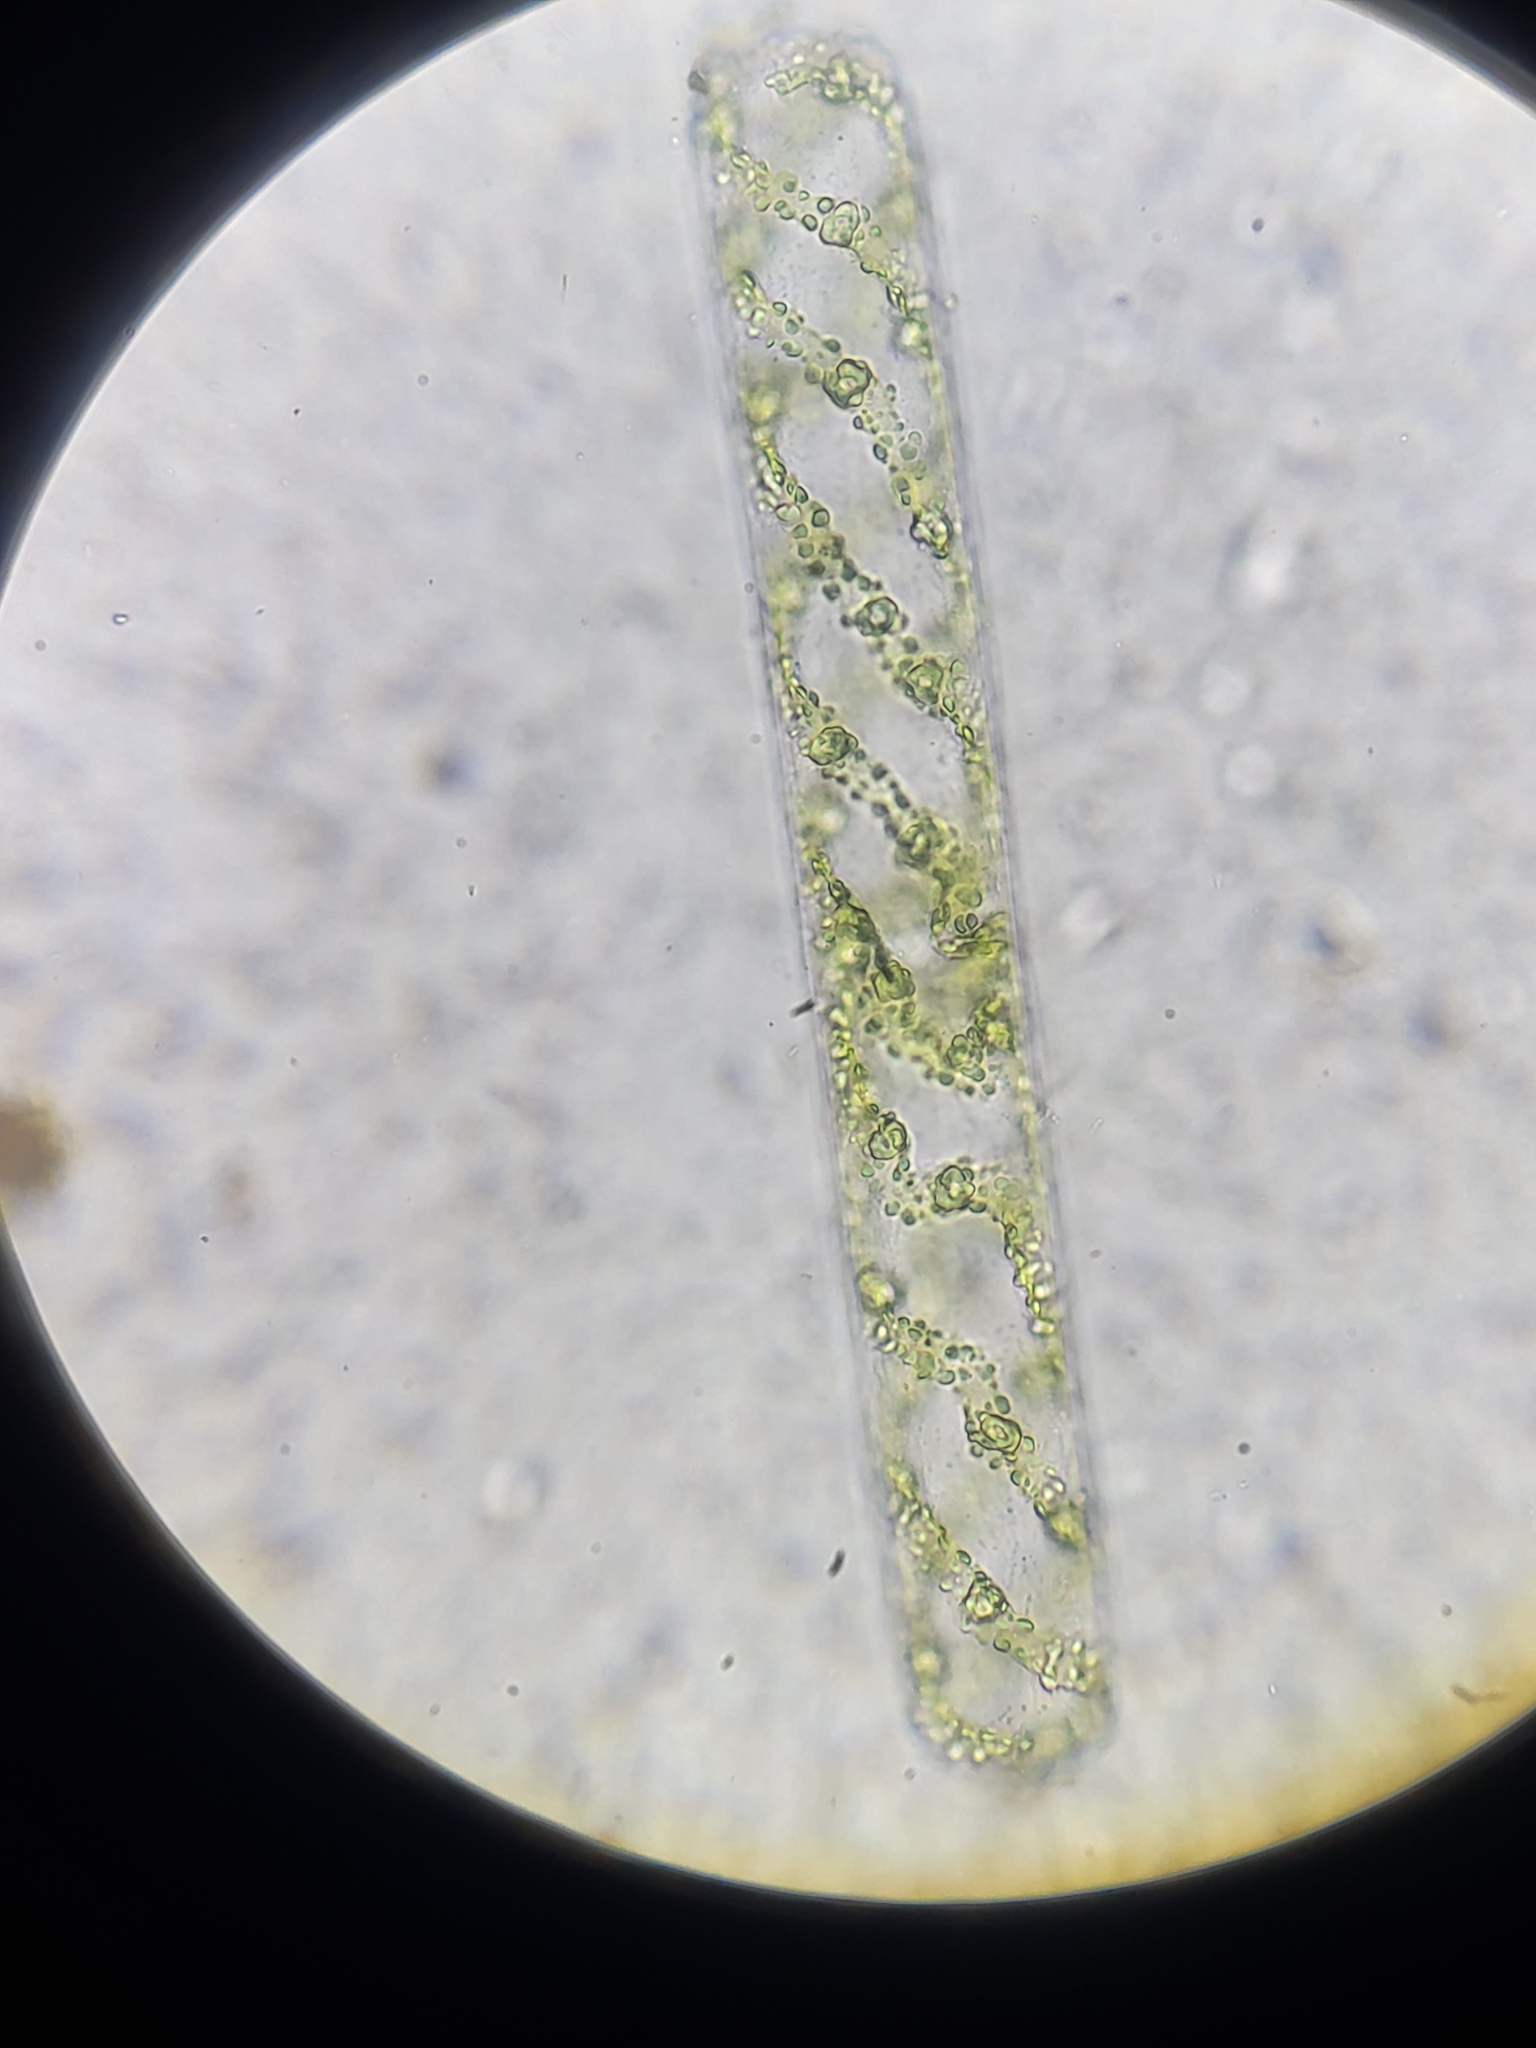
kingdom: Plantae
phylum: Charophyta
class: Zygnematophyceae
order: Zygnematales
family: Zygnemataceae
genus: Spirogyra
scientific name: Spirogyra
